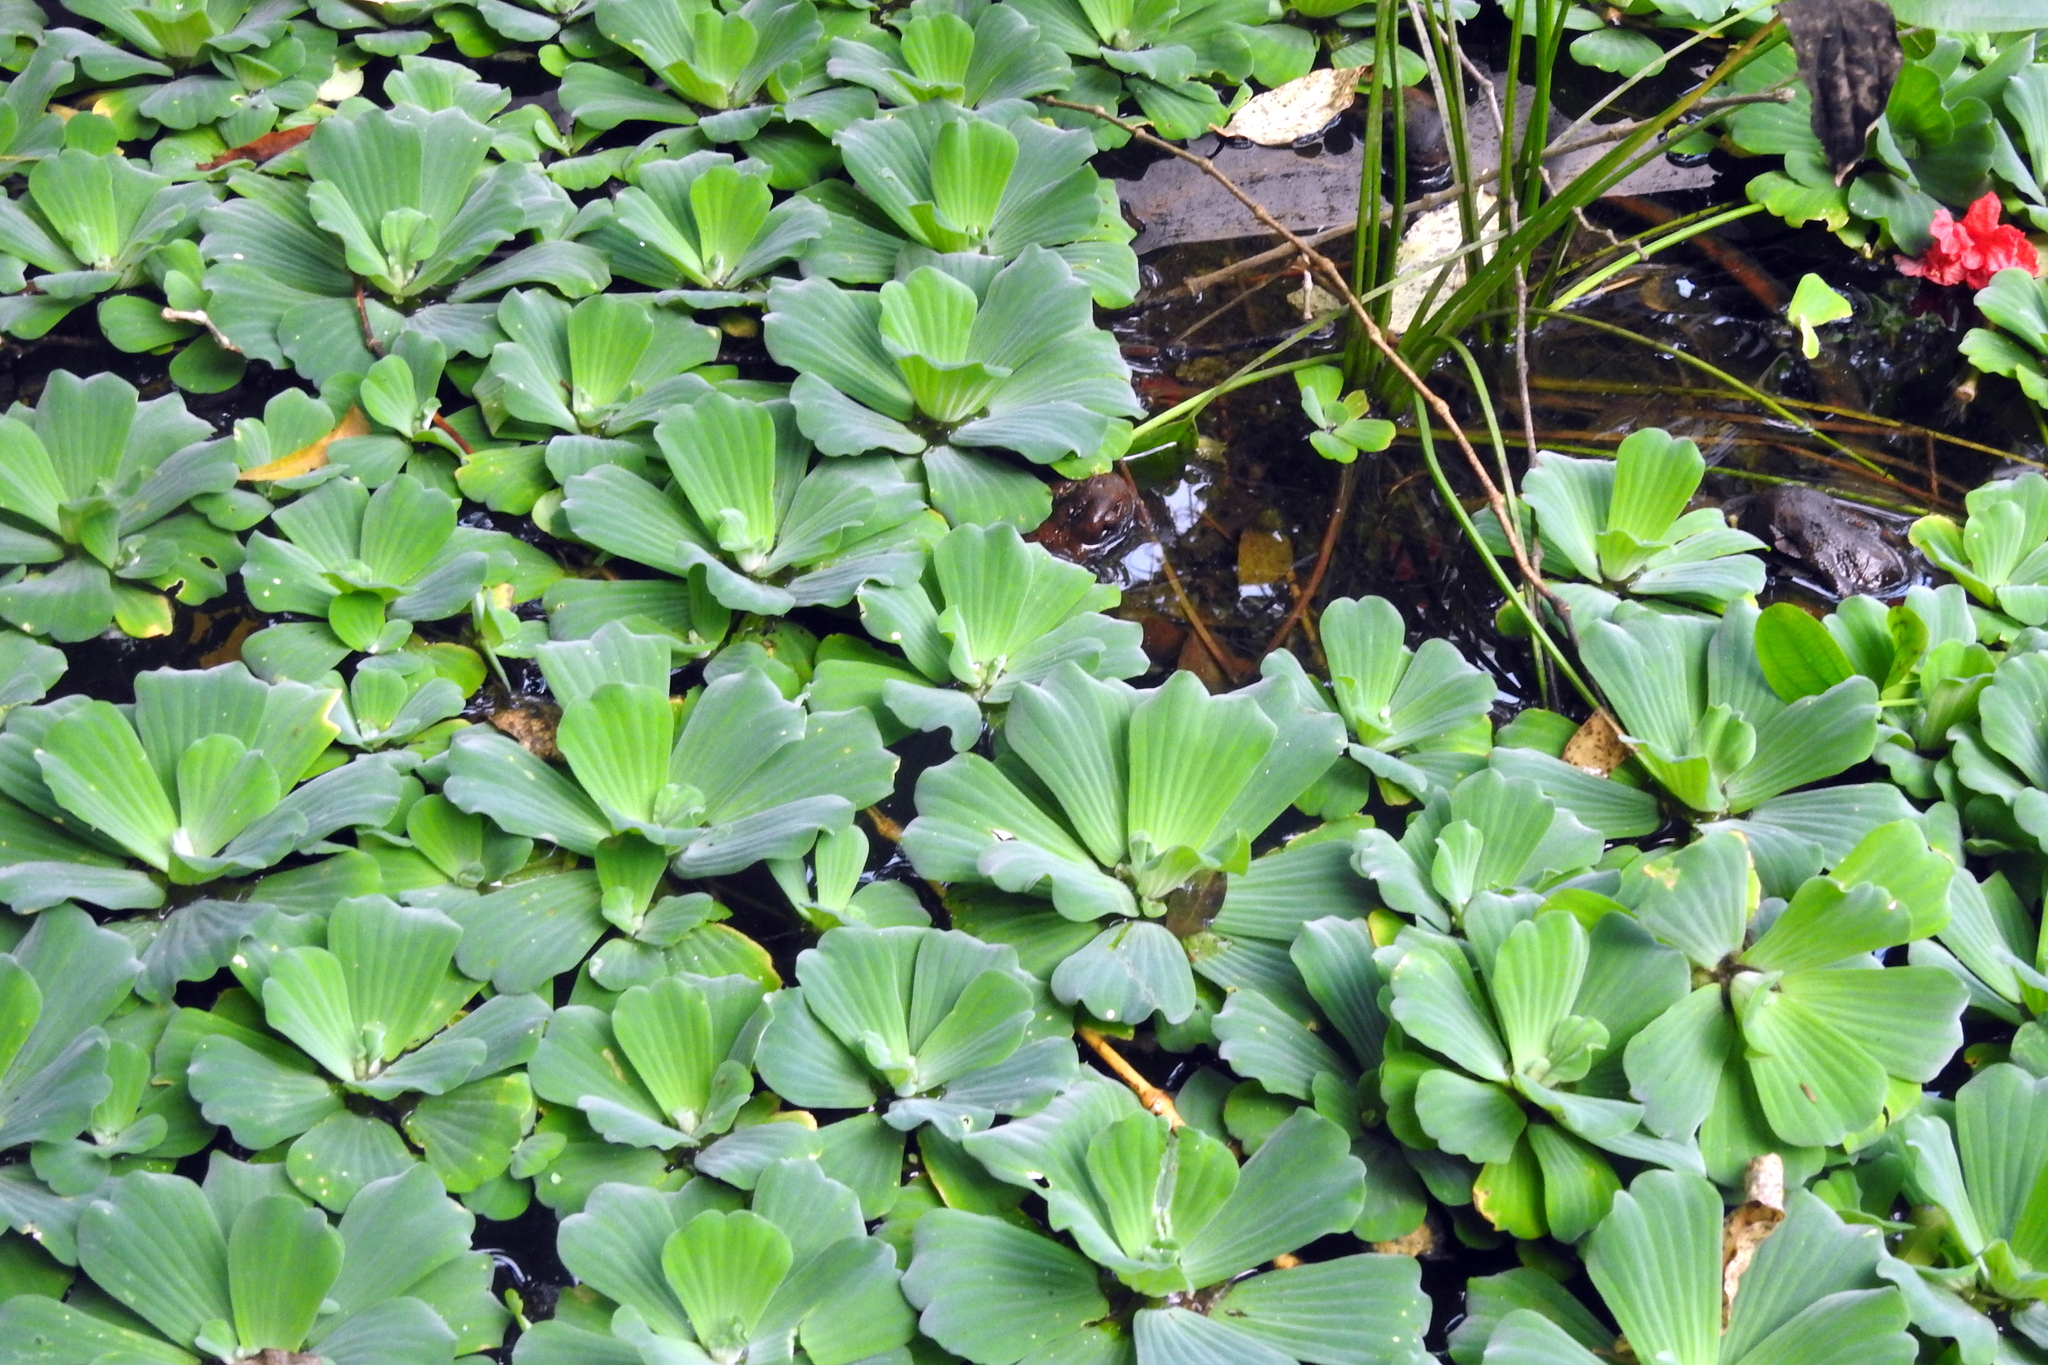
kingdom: Plantae
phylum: Tracheophyta
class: Liliopsida
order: Alismatales
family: Araceae
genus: Pistia
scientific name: Pistia stratiotes
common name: Water lettuce
